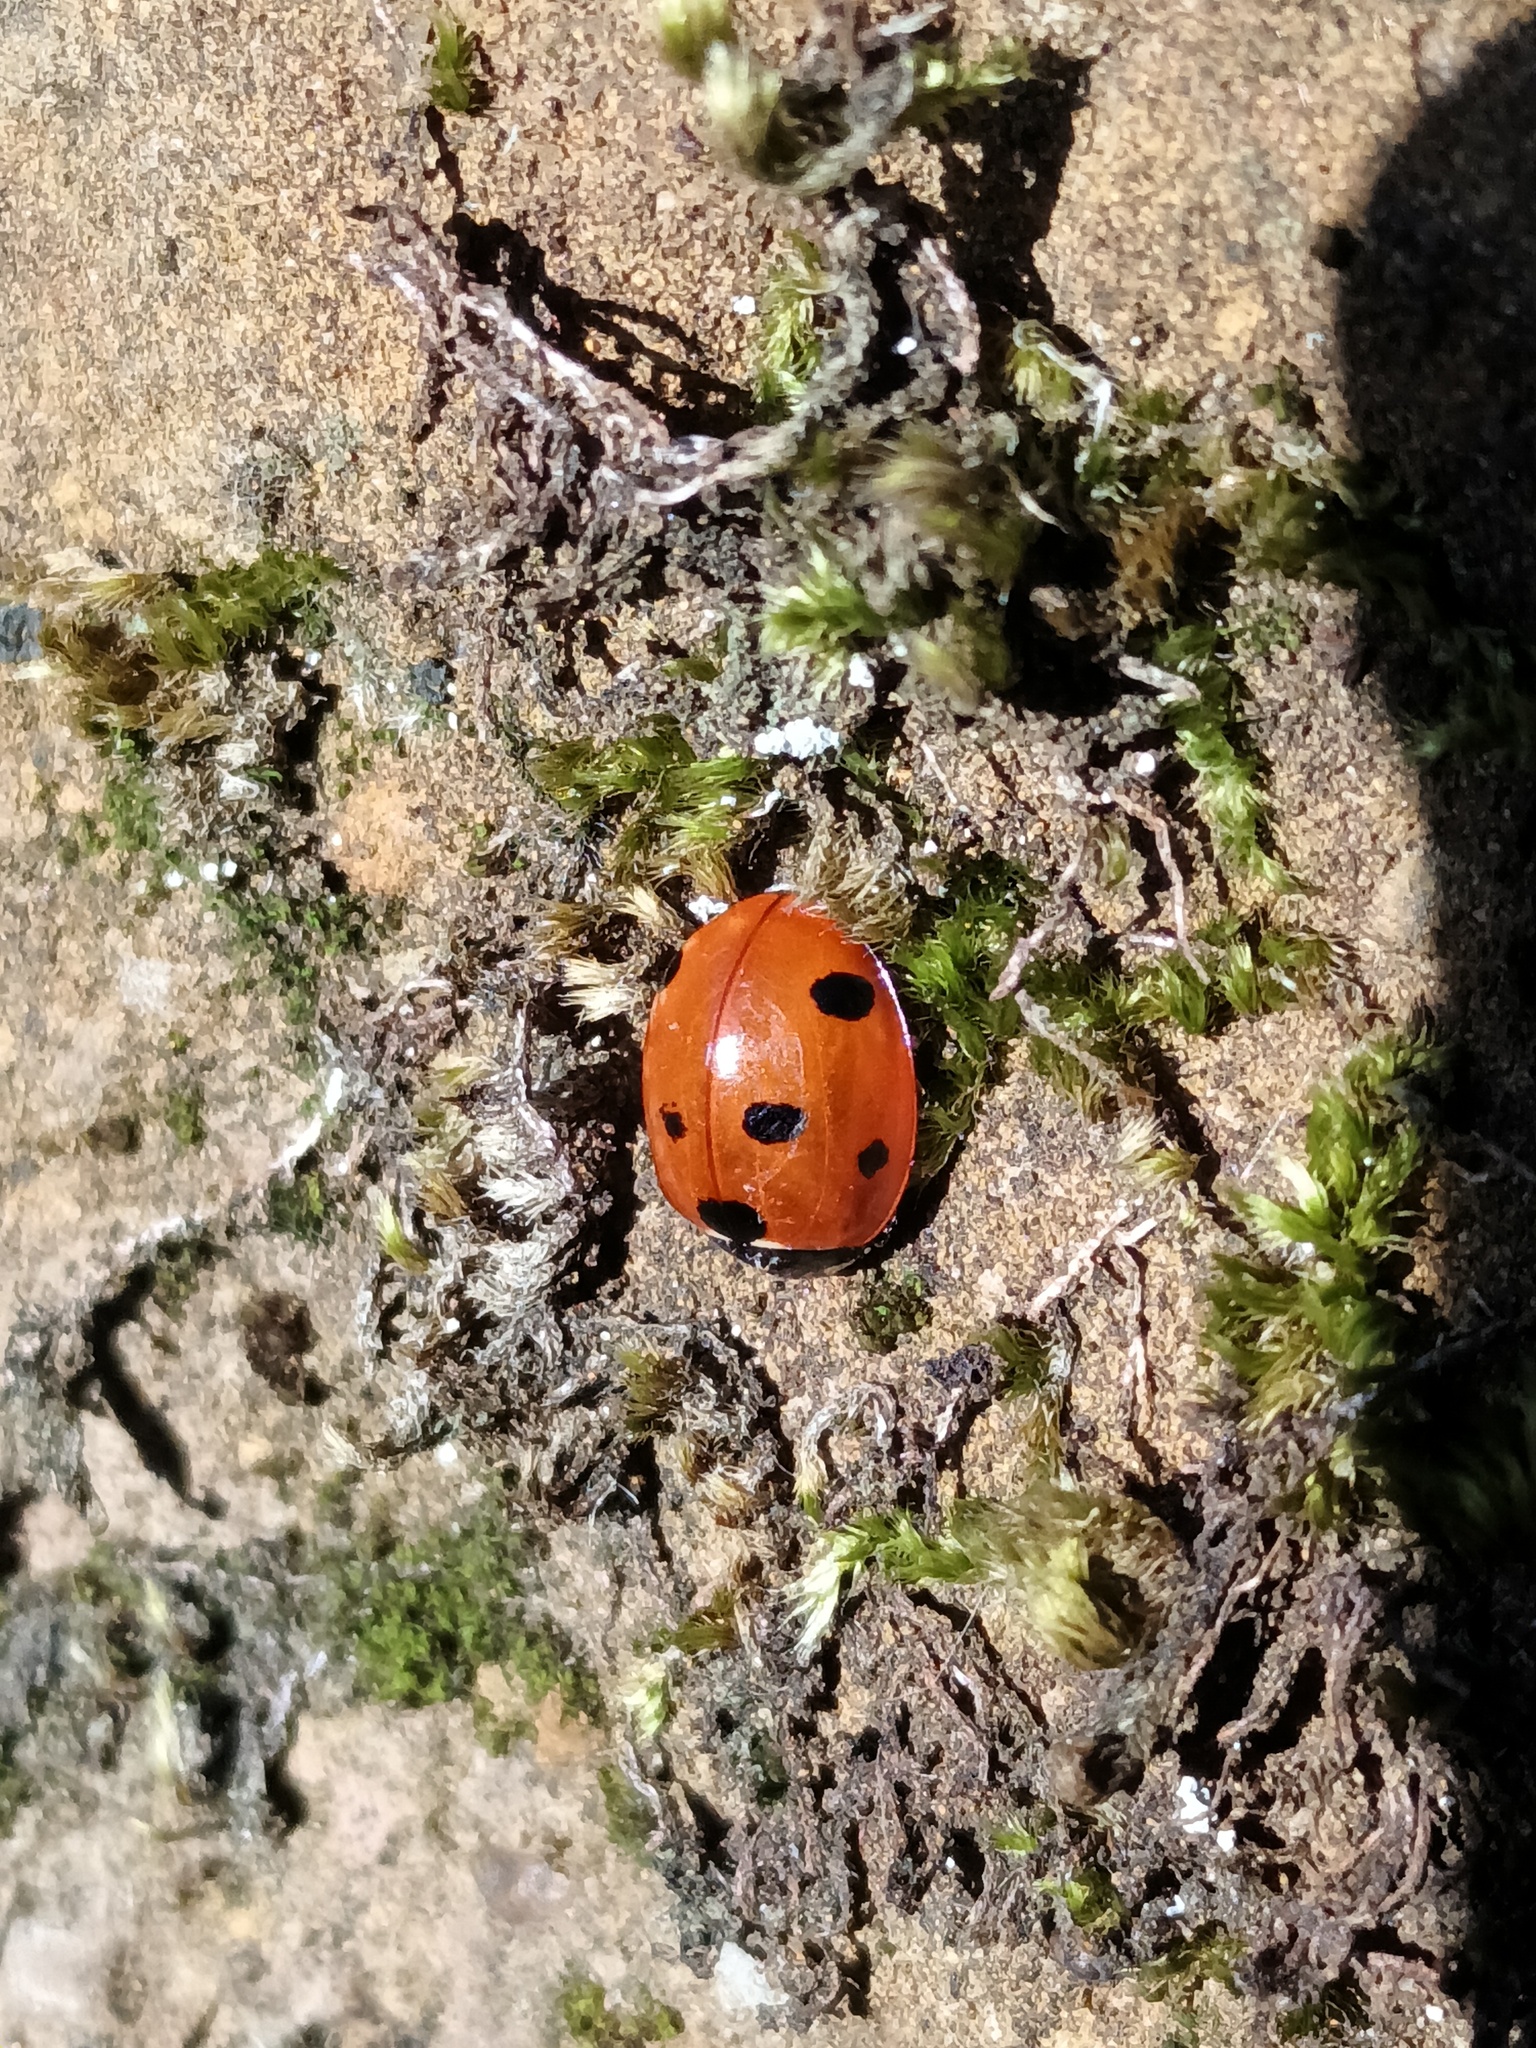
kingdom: Animalia
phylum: Arthropoda
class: Insecta
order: Coleoptera
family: Coccinellidae
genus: Coccinella
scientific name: Coccinella septempunctata
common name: Sevenspotted lady beetle
